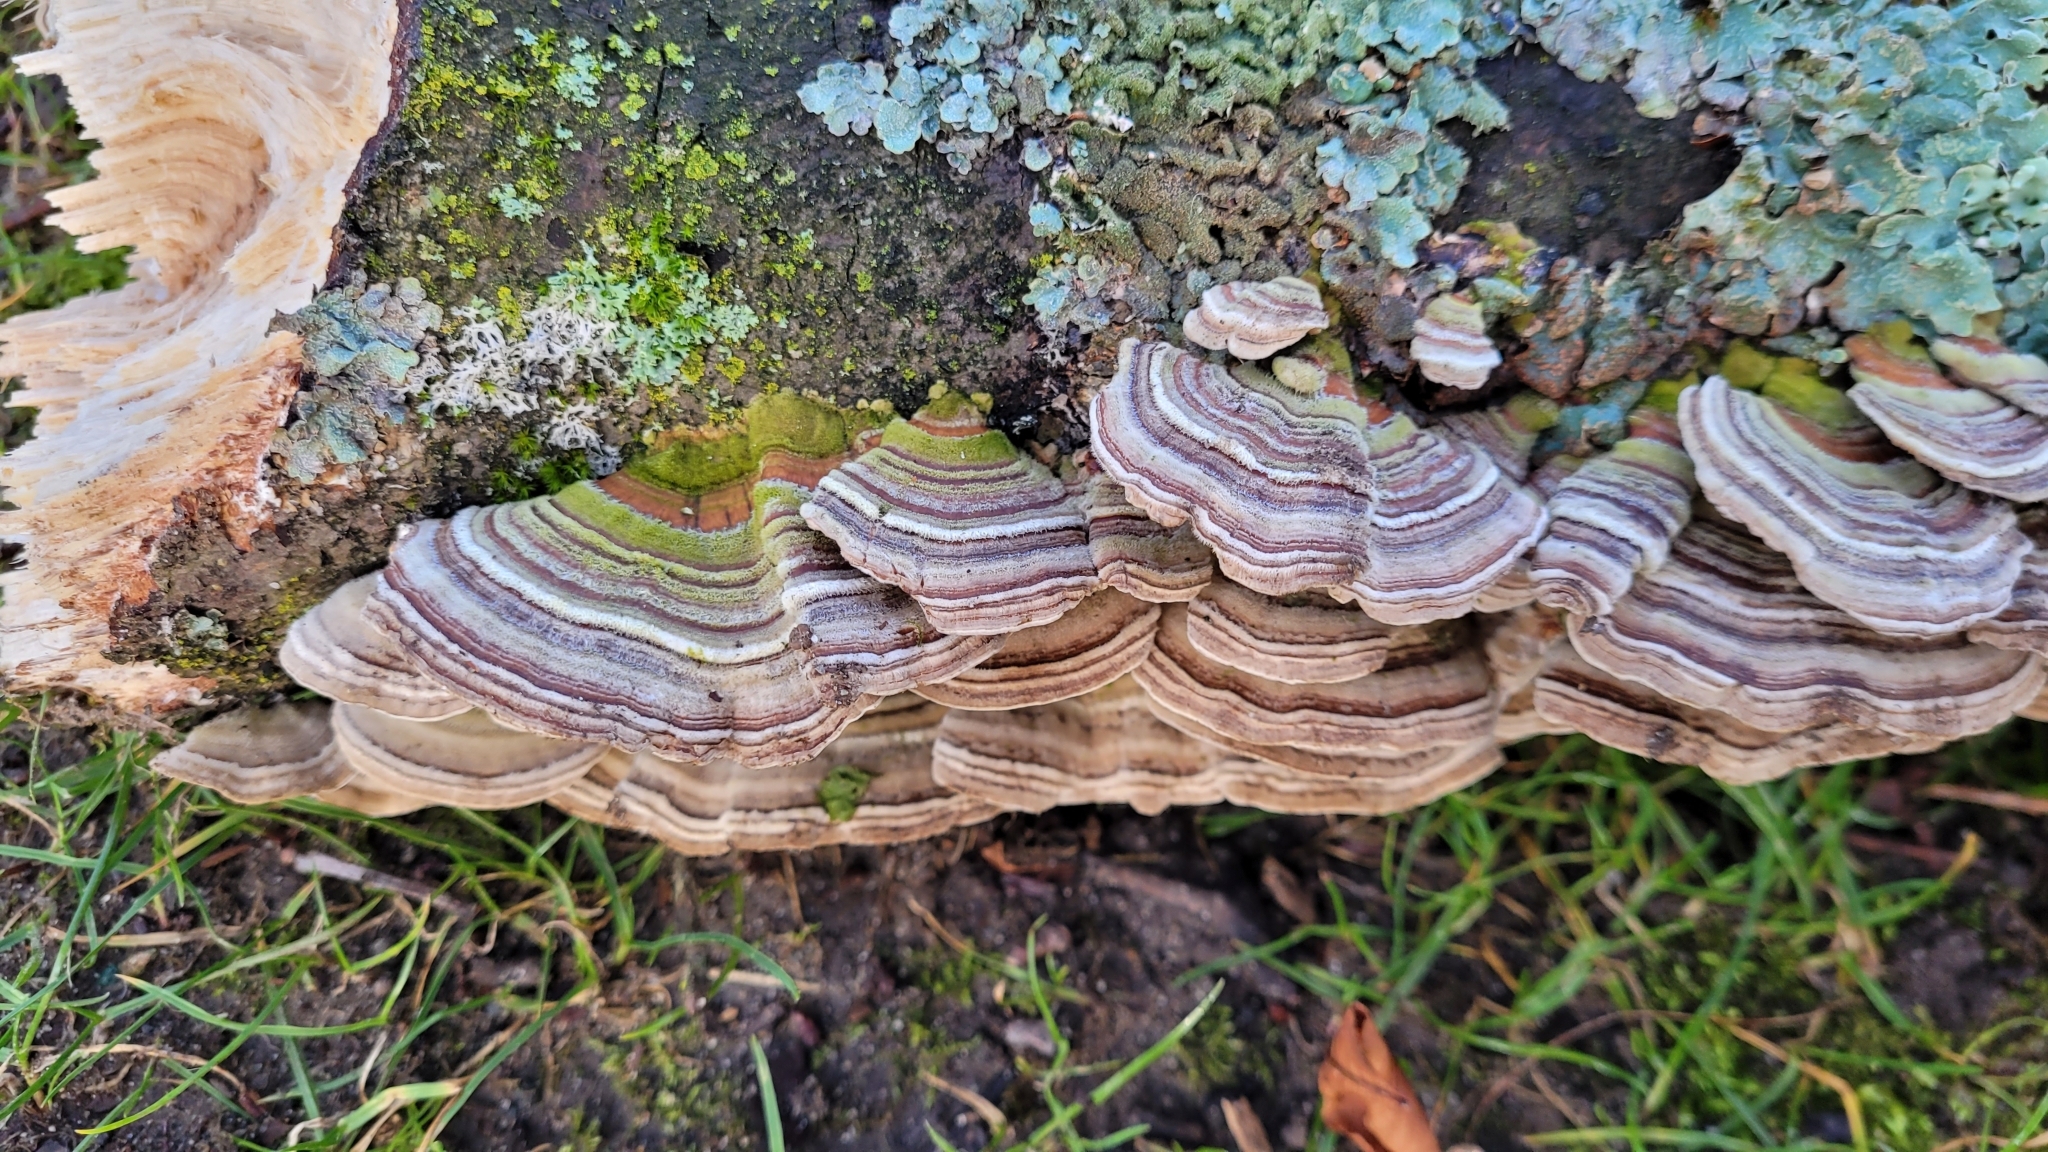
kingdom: Fungi
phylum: Basidiomycota
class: Agaricomycetes
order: Polyporales
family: Polyporaceae
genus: Trametes
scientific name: Trametes versicolor
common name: Turkeytail
